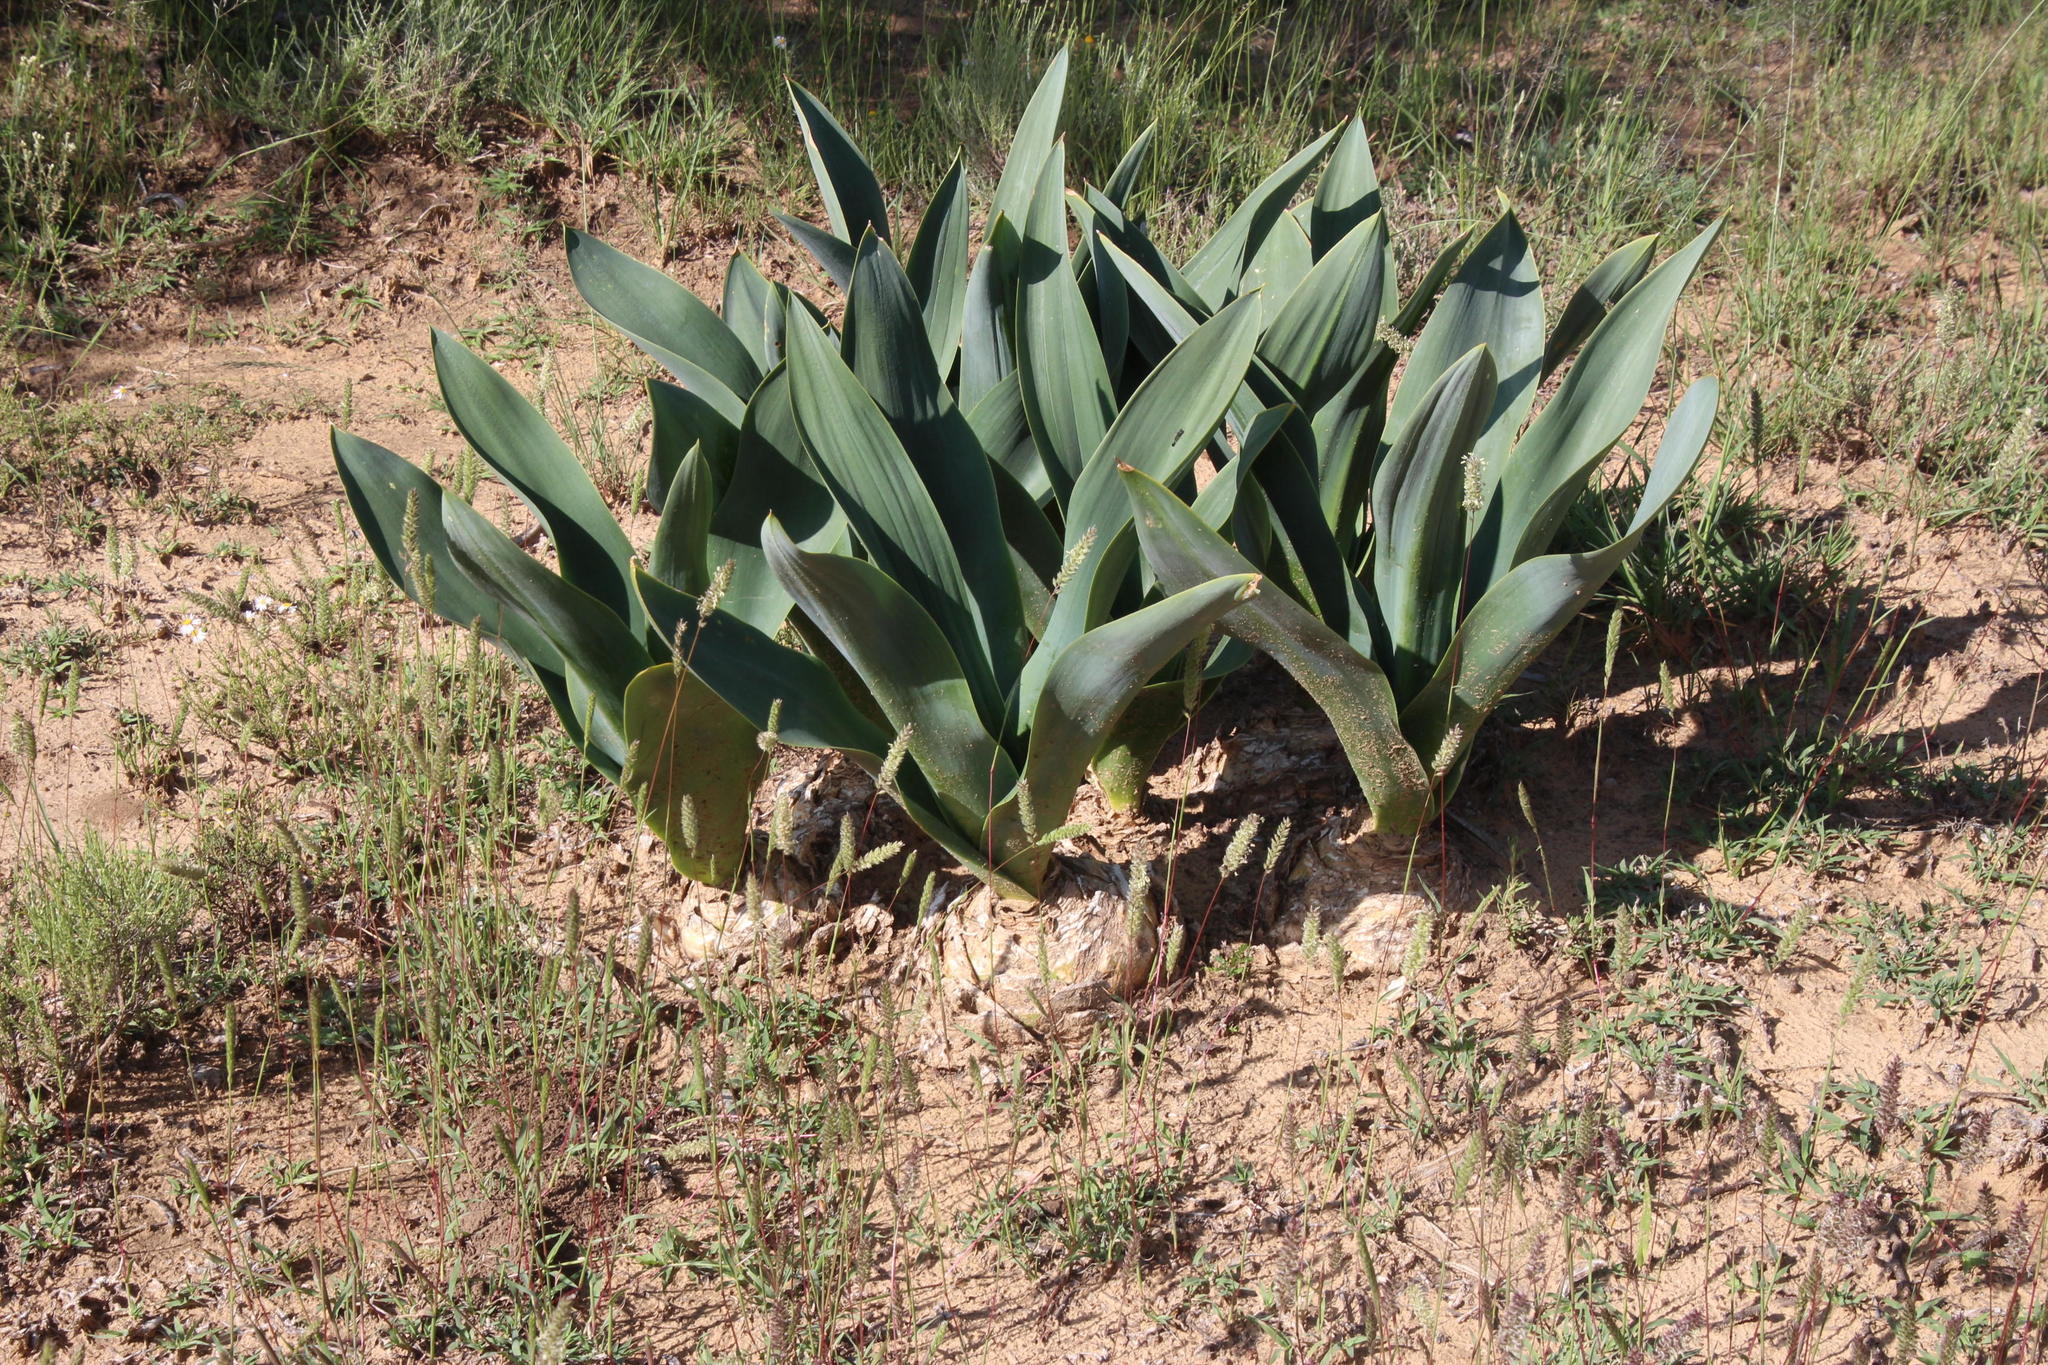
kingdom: Plantae
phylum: Tracheophyta
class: Liliopsida
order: Asparagales
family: Asparagaceae
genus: Drimia
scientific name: Drimia capensis
